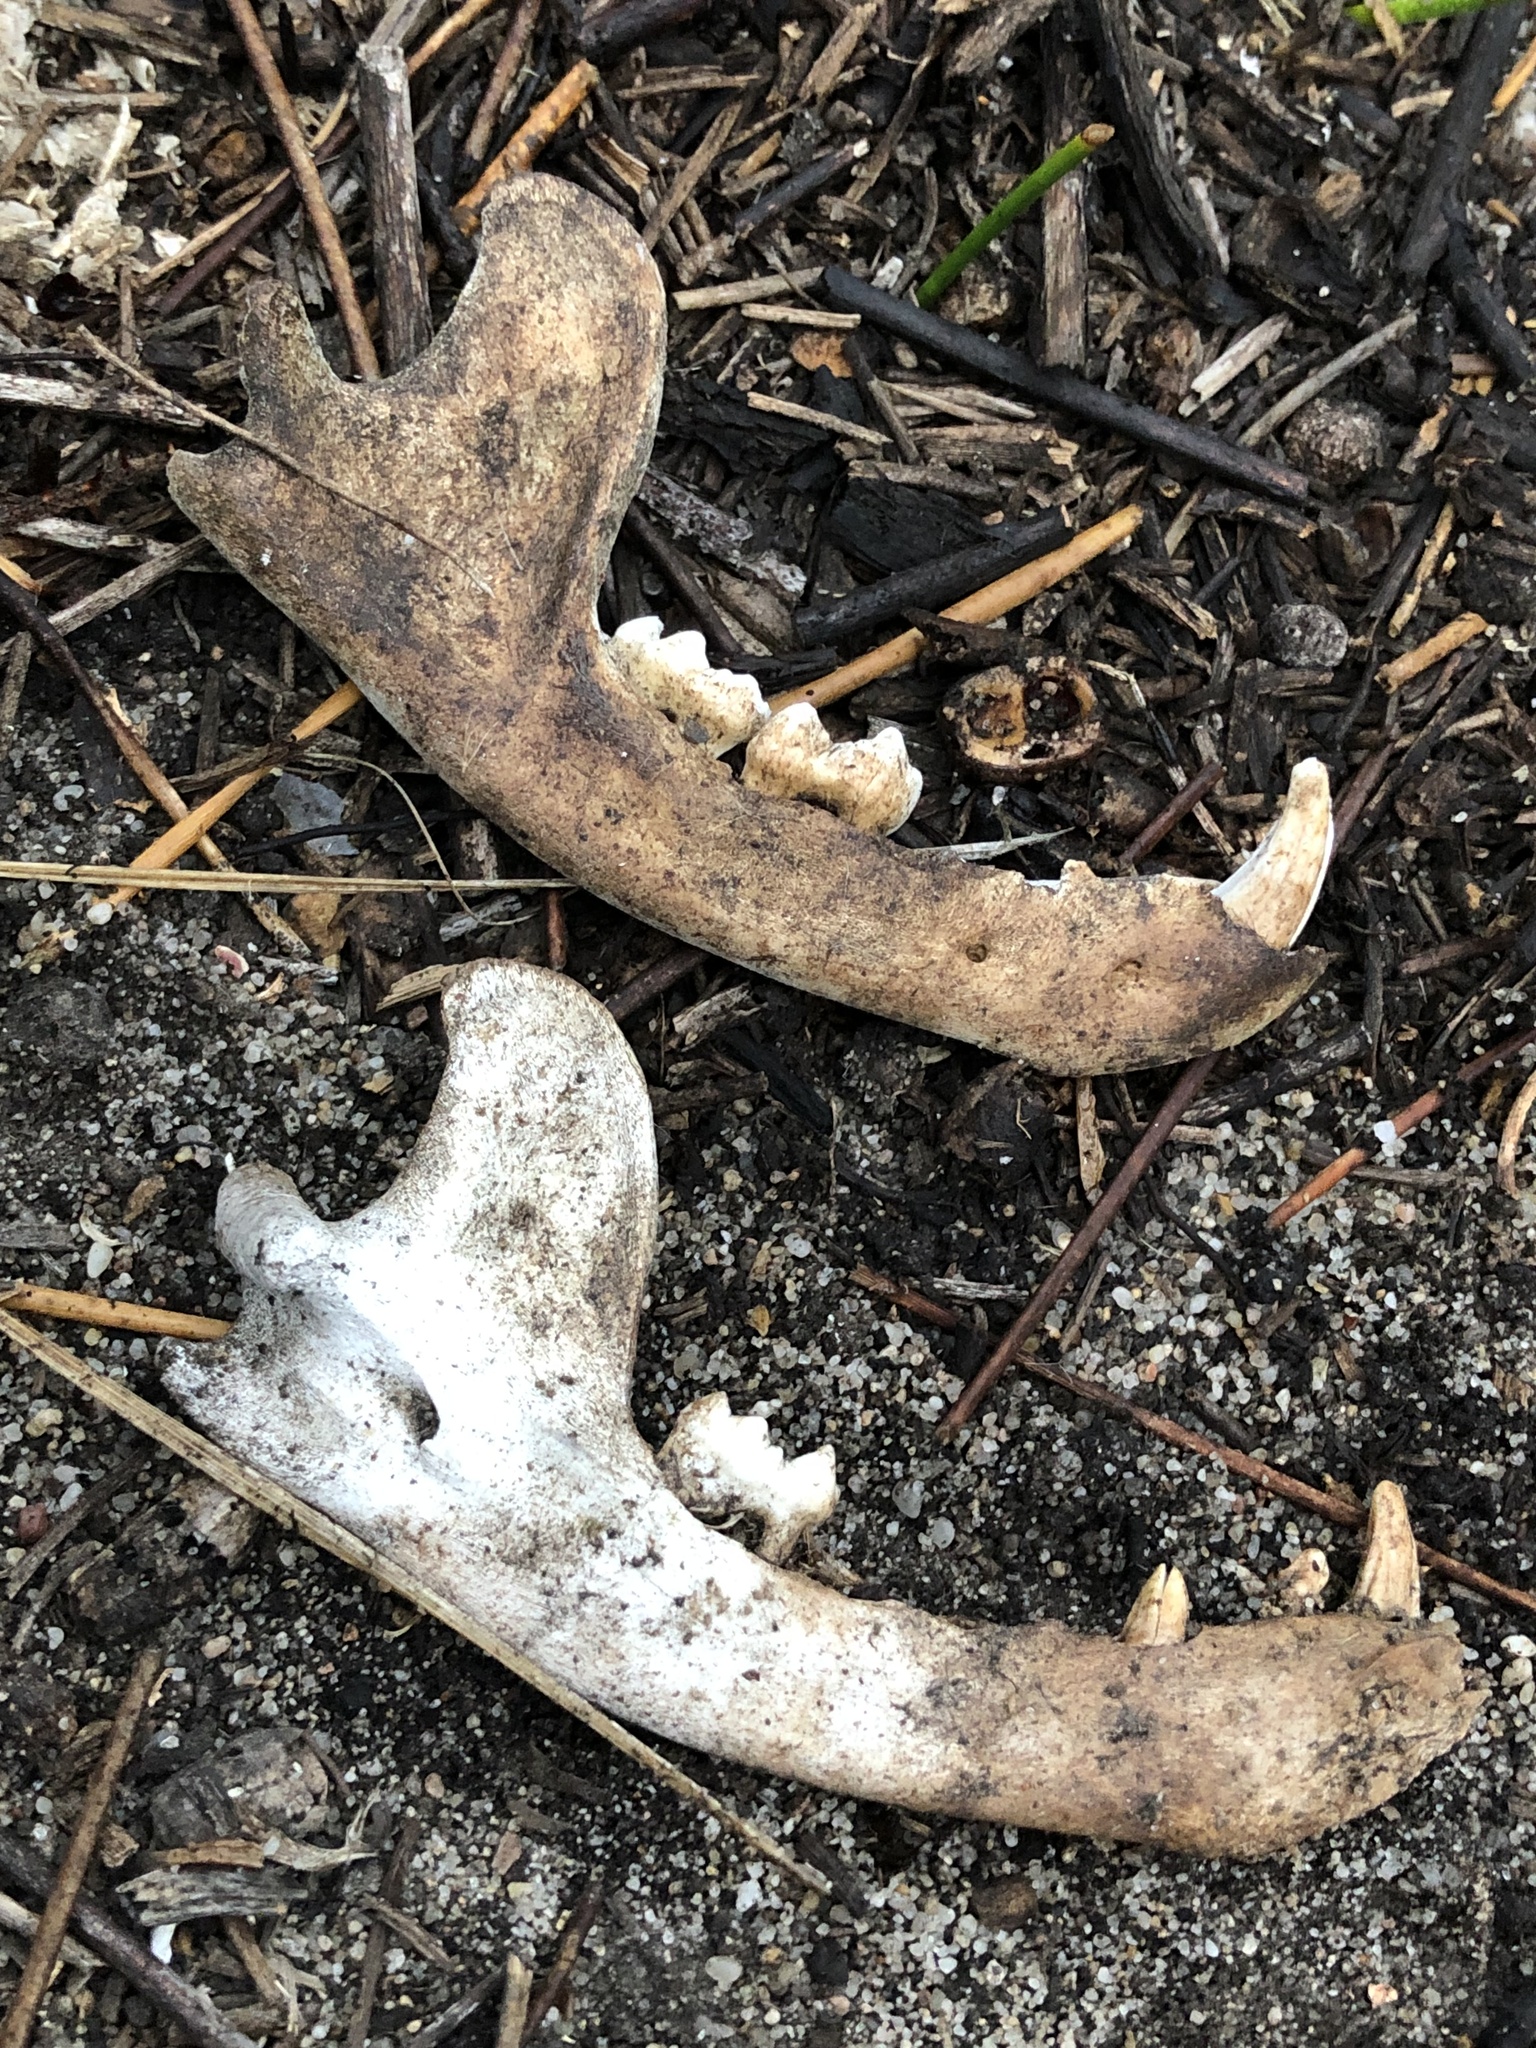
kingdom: Animalia
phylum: Chordata
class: Mammalia
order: Carnivora
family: Procyonidae
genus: Procyon
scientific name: Procyon lotor
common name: Raccoon
